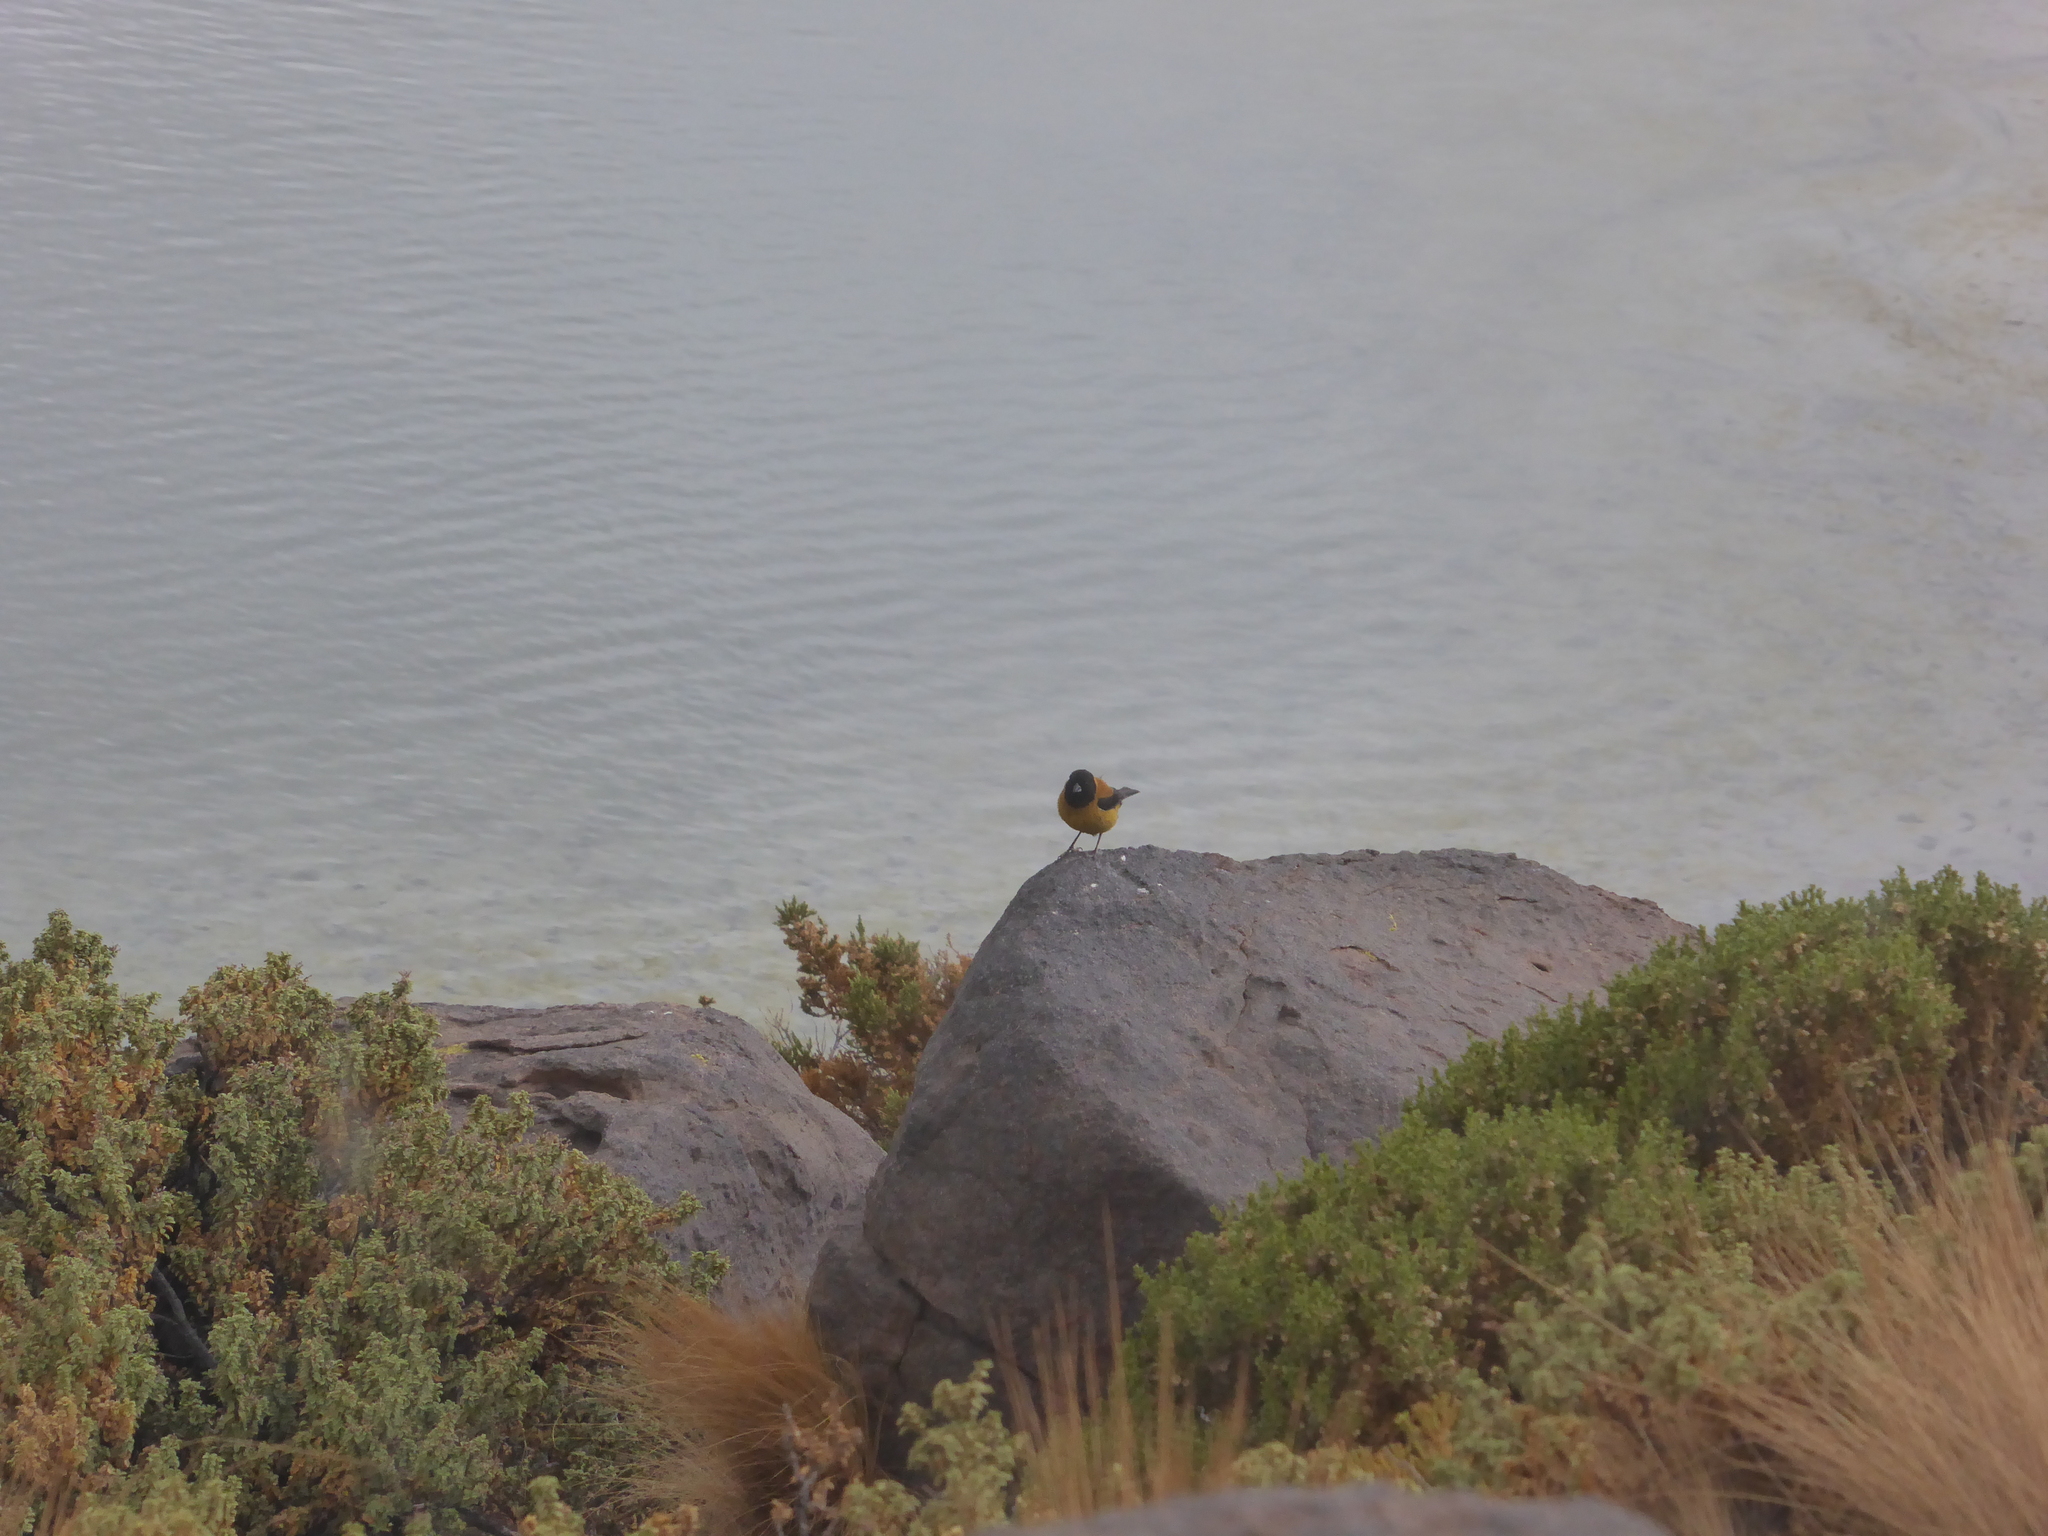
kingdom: Animalia
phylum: Chordata
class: Aves
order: Passeriformes
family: Thraupidae
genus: Phrygilus
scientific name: Phrygilus atriceps
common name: Black-hooded sierra finch
